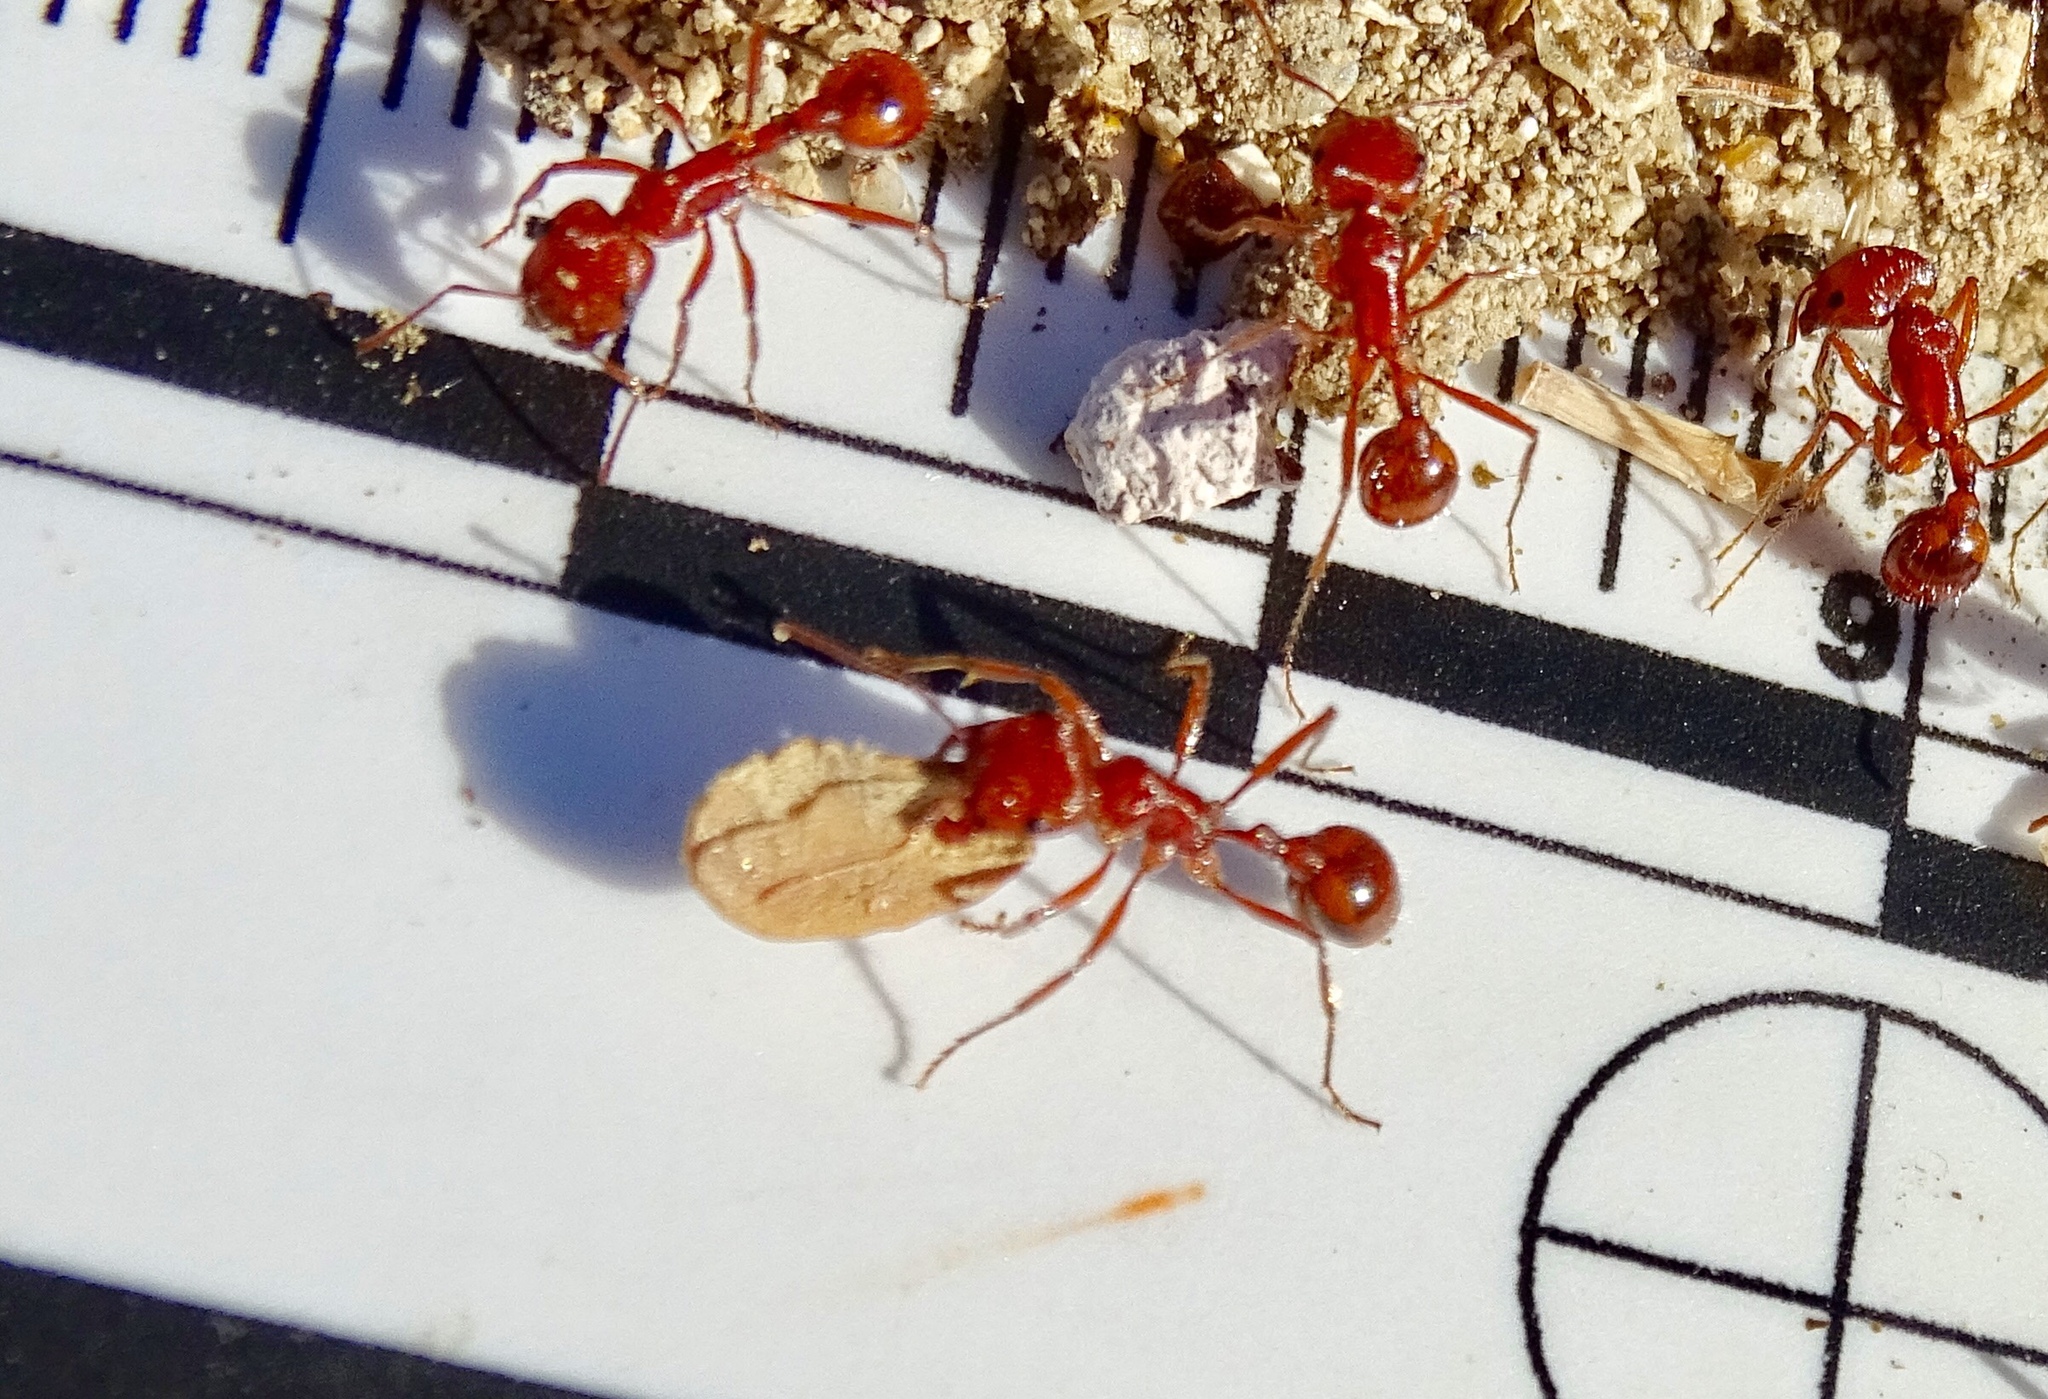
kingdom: Animalia
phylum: Arthropoda
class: Insecta
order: Hymenoptera
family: Formicidae
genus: Pogonomyrmex
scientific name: Pogonomyrmex californicus
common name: California harvester ant
